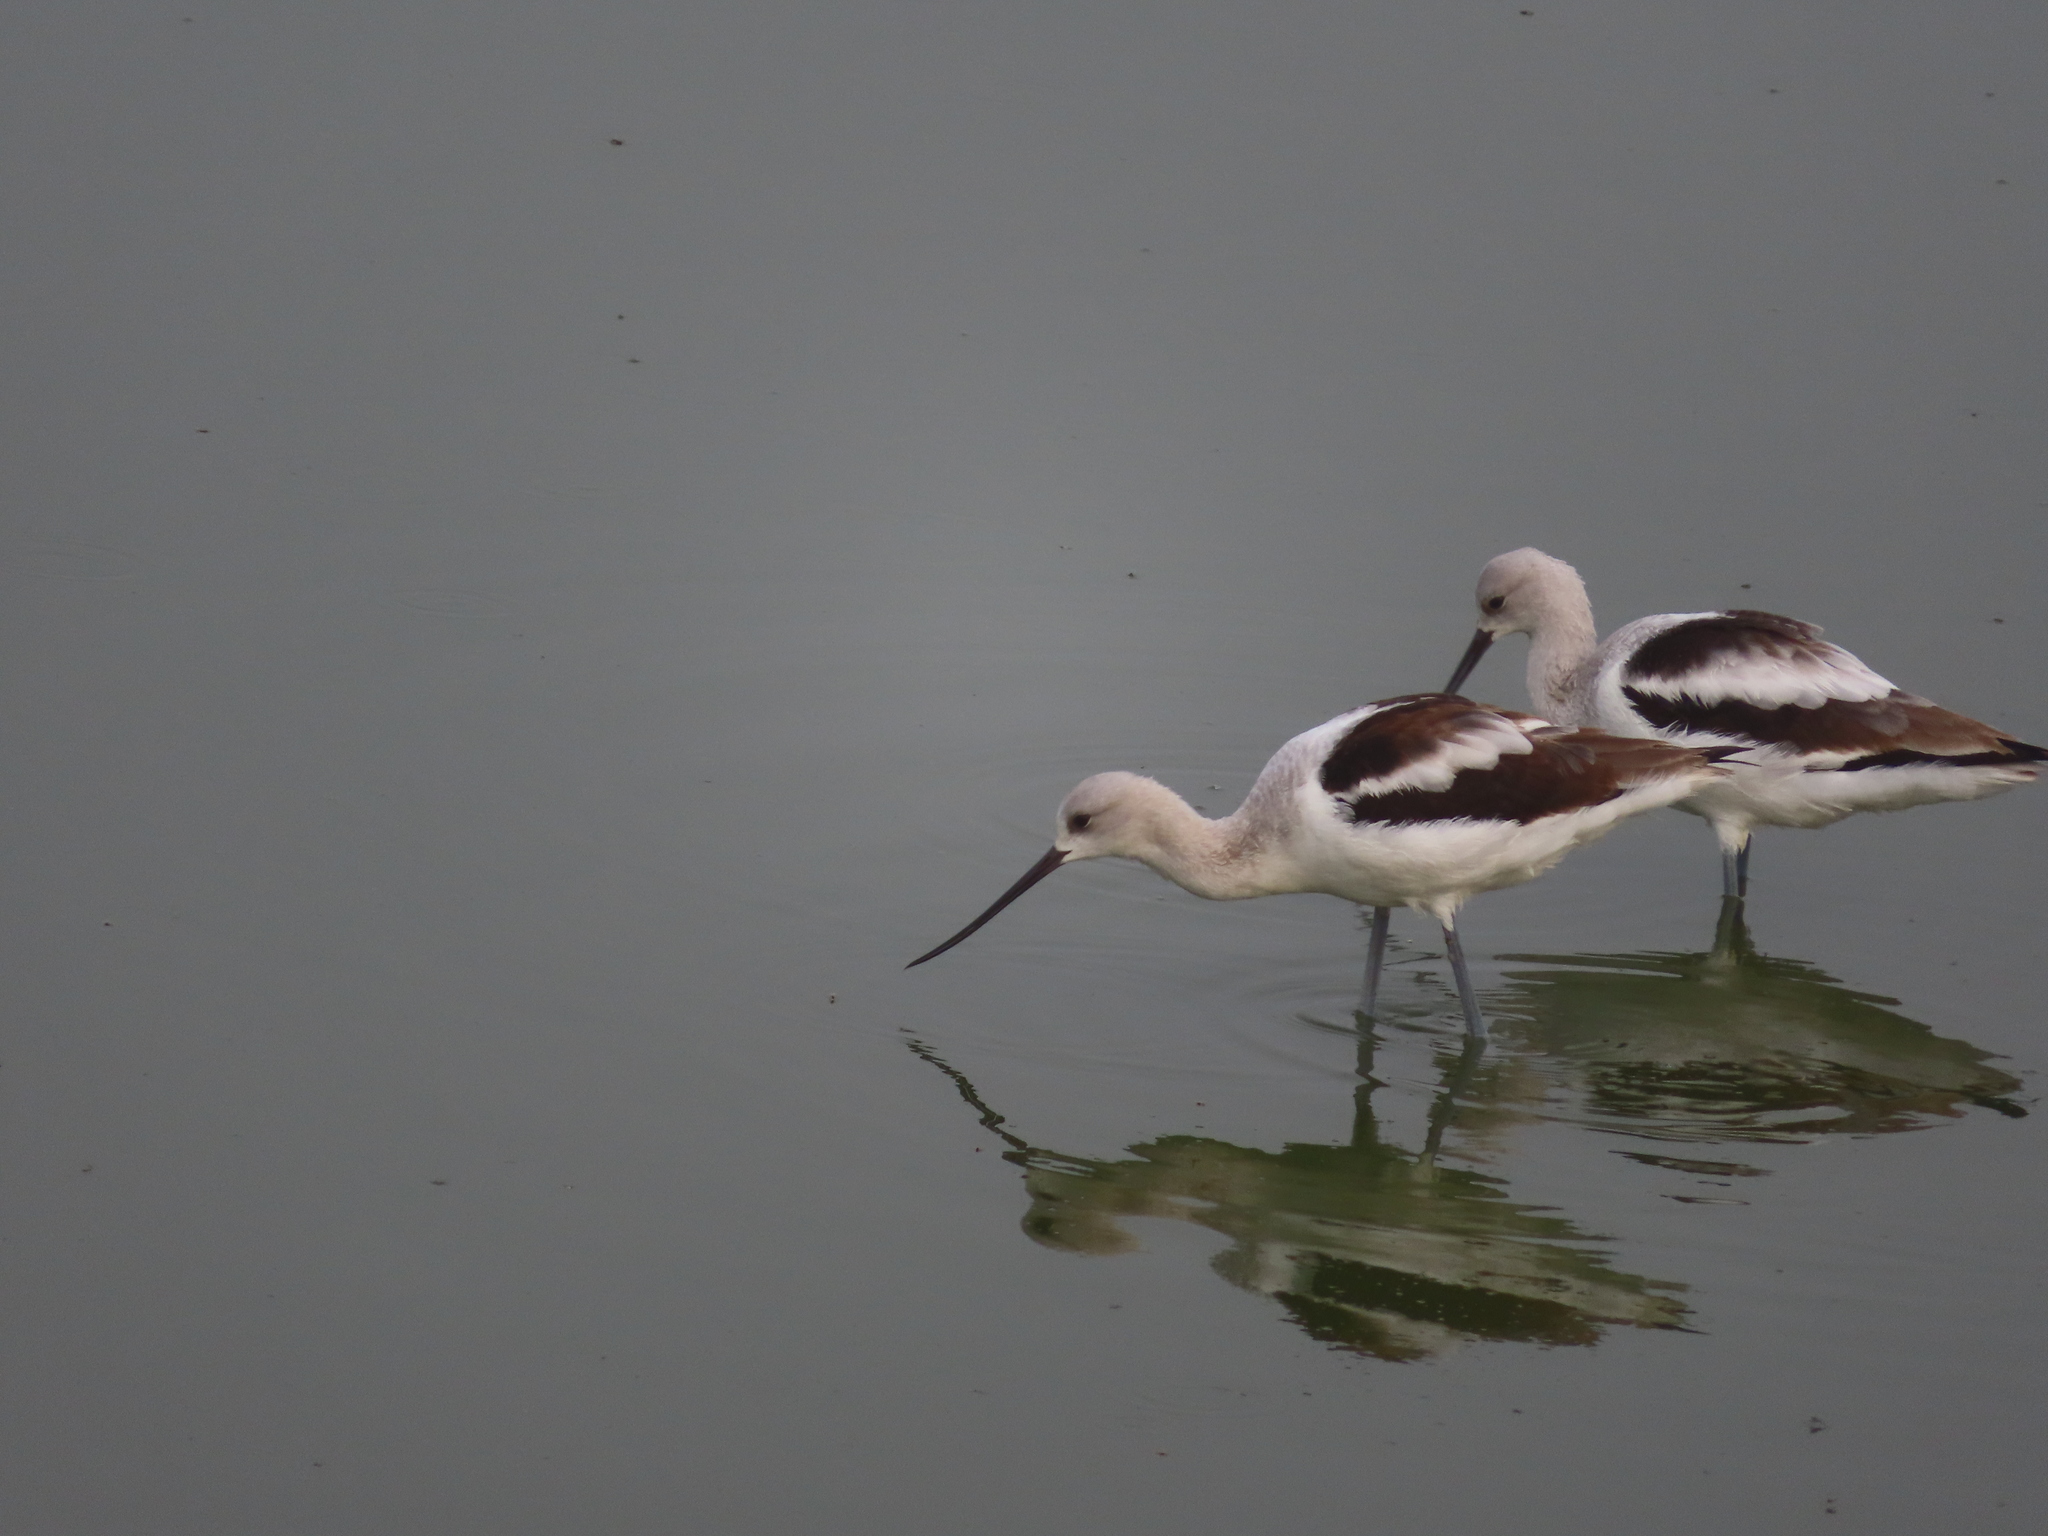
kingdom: Animalia
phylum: Chordata
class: Aves
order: Charadriiformes
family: Recurvirostridae
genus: Recurvirostra
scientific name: Recurvirostra americana
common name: American avocet
